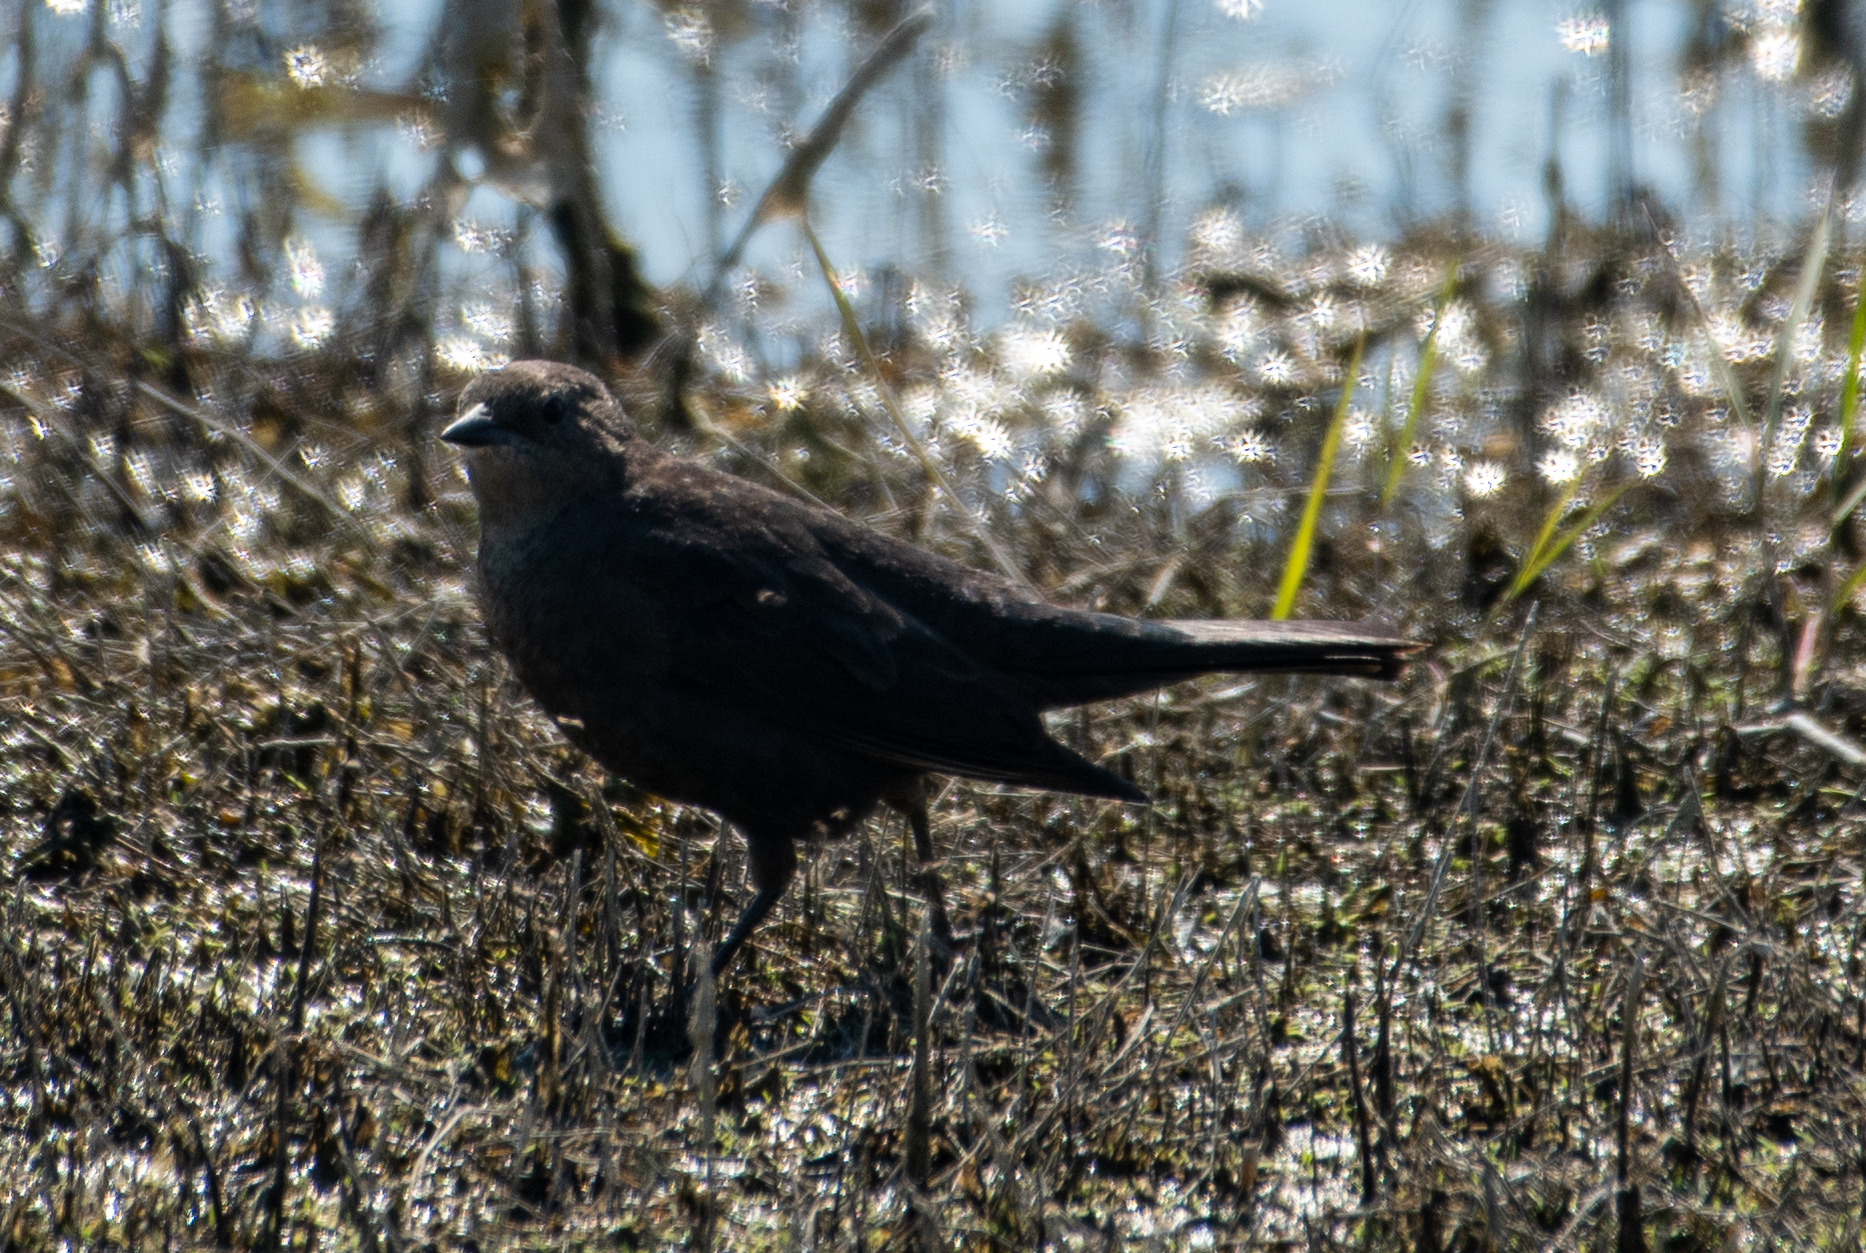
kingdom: Animalia
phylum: Chordata
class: Aves
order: Passeriformes
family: Icteridae
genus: Euphagus
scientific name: Euphagus cyanocephalus
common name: Brewer's blackbird
